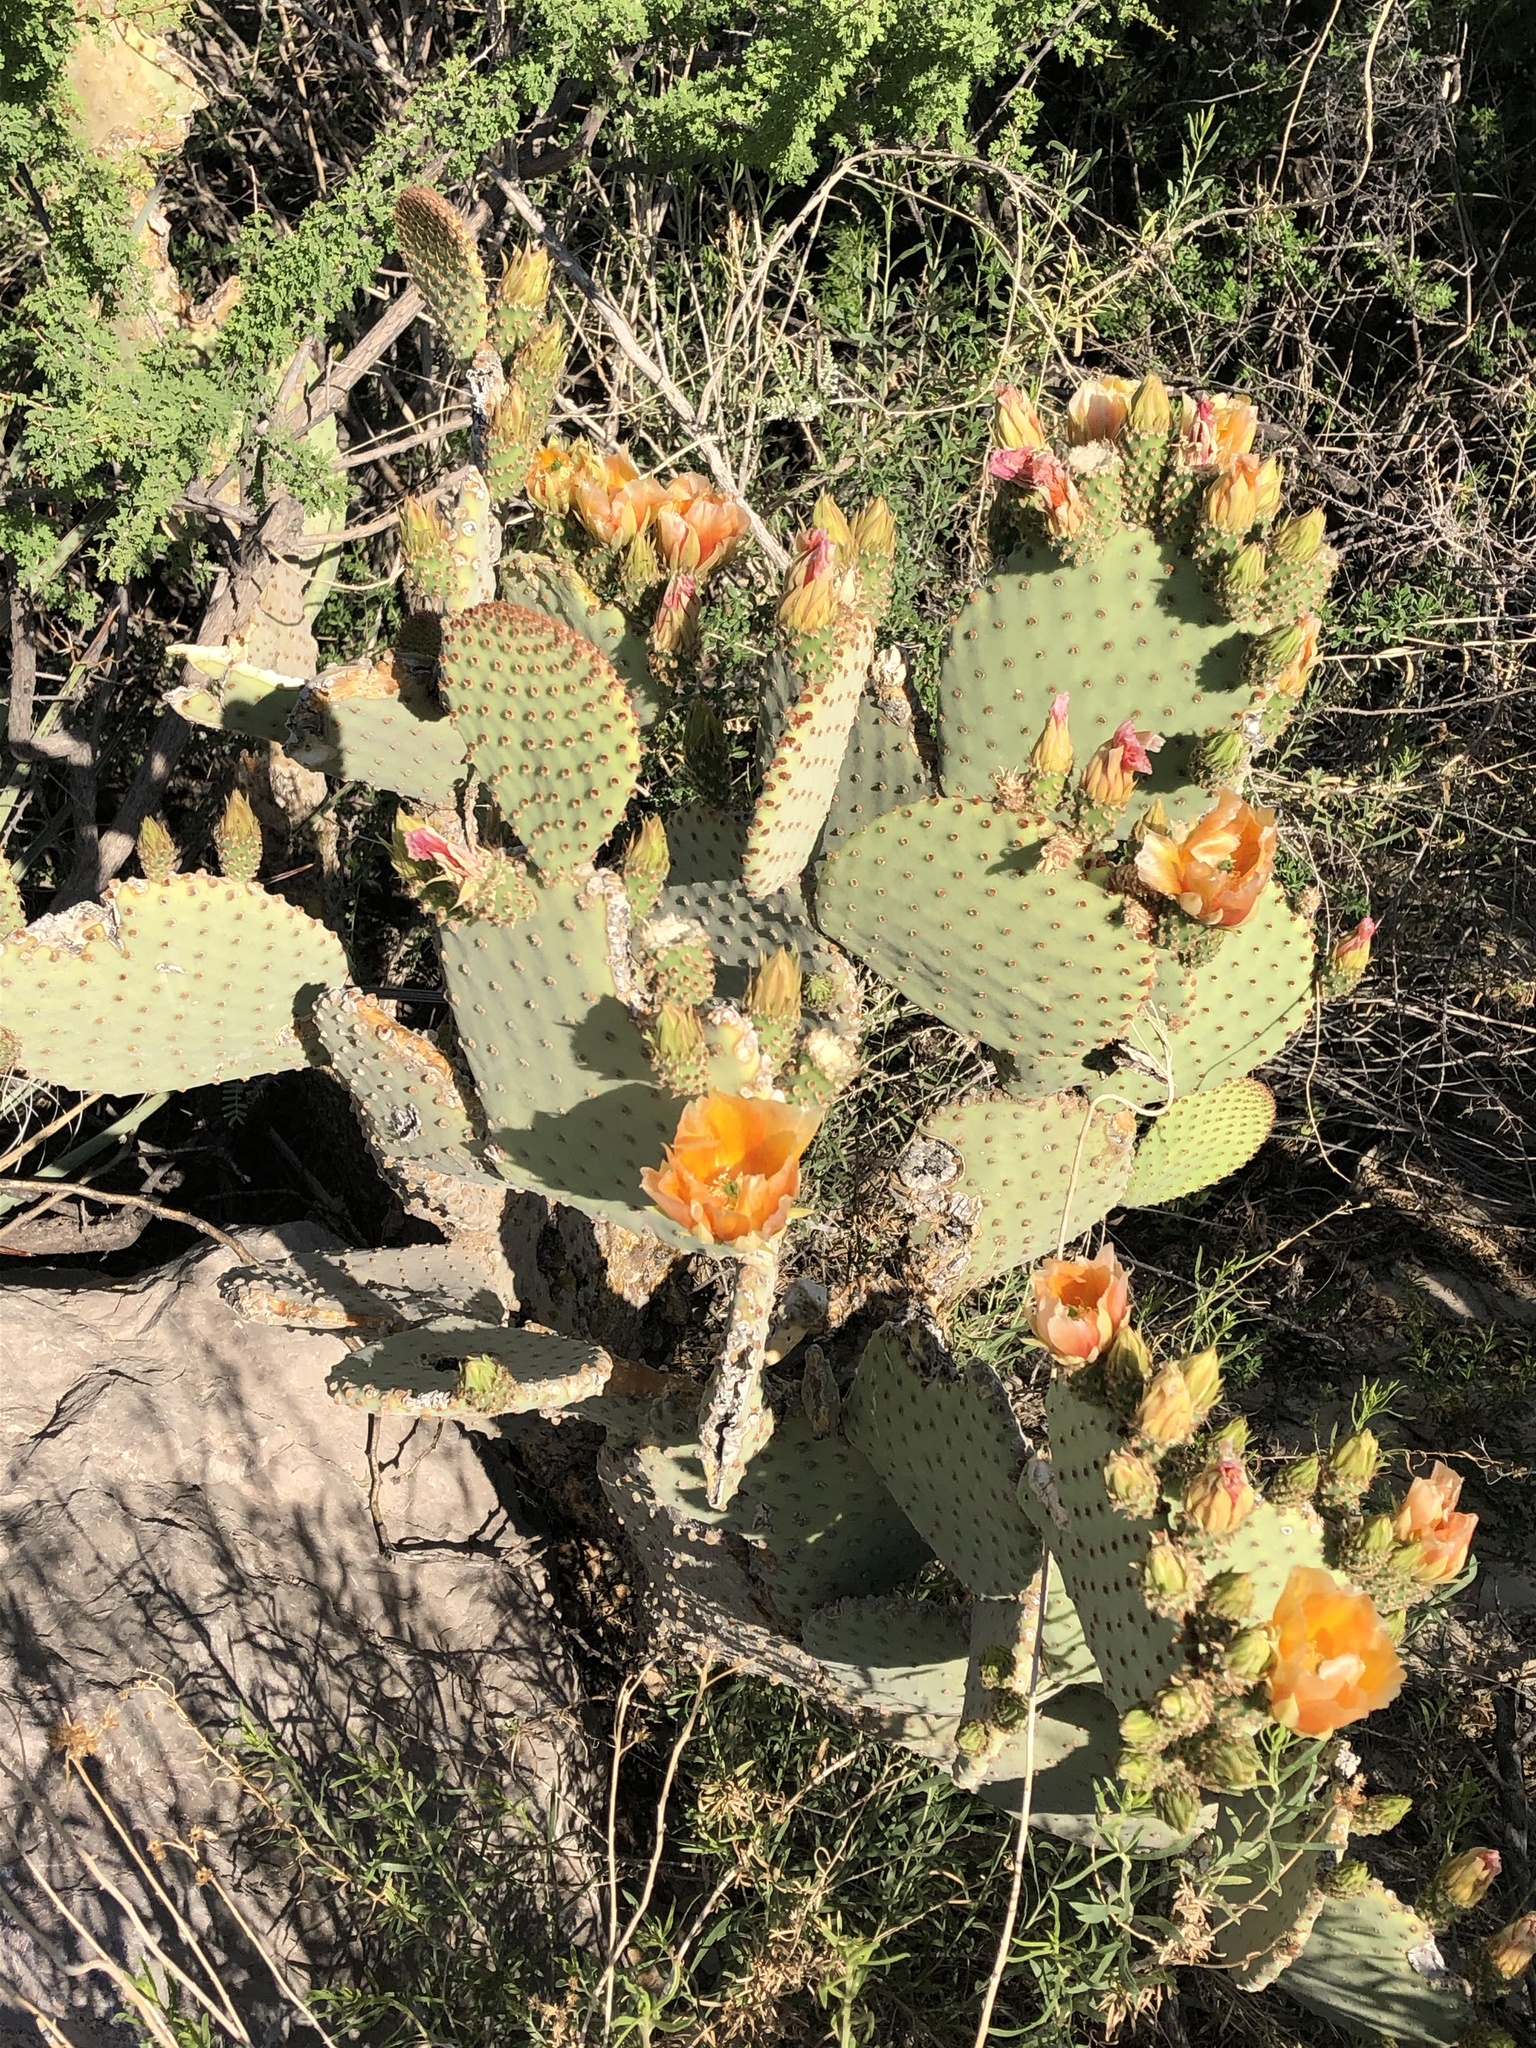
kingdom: Plantae
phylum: Tracheophyta
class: Magnoliopsida
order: Caryophyllales
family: Cactaceae
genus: Opuntia
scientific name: Opuntia rufida
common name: Blind pricklypear
